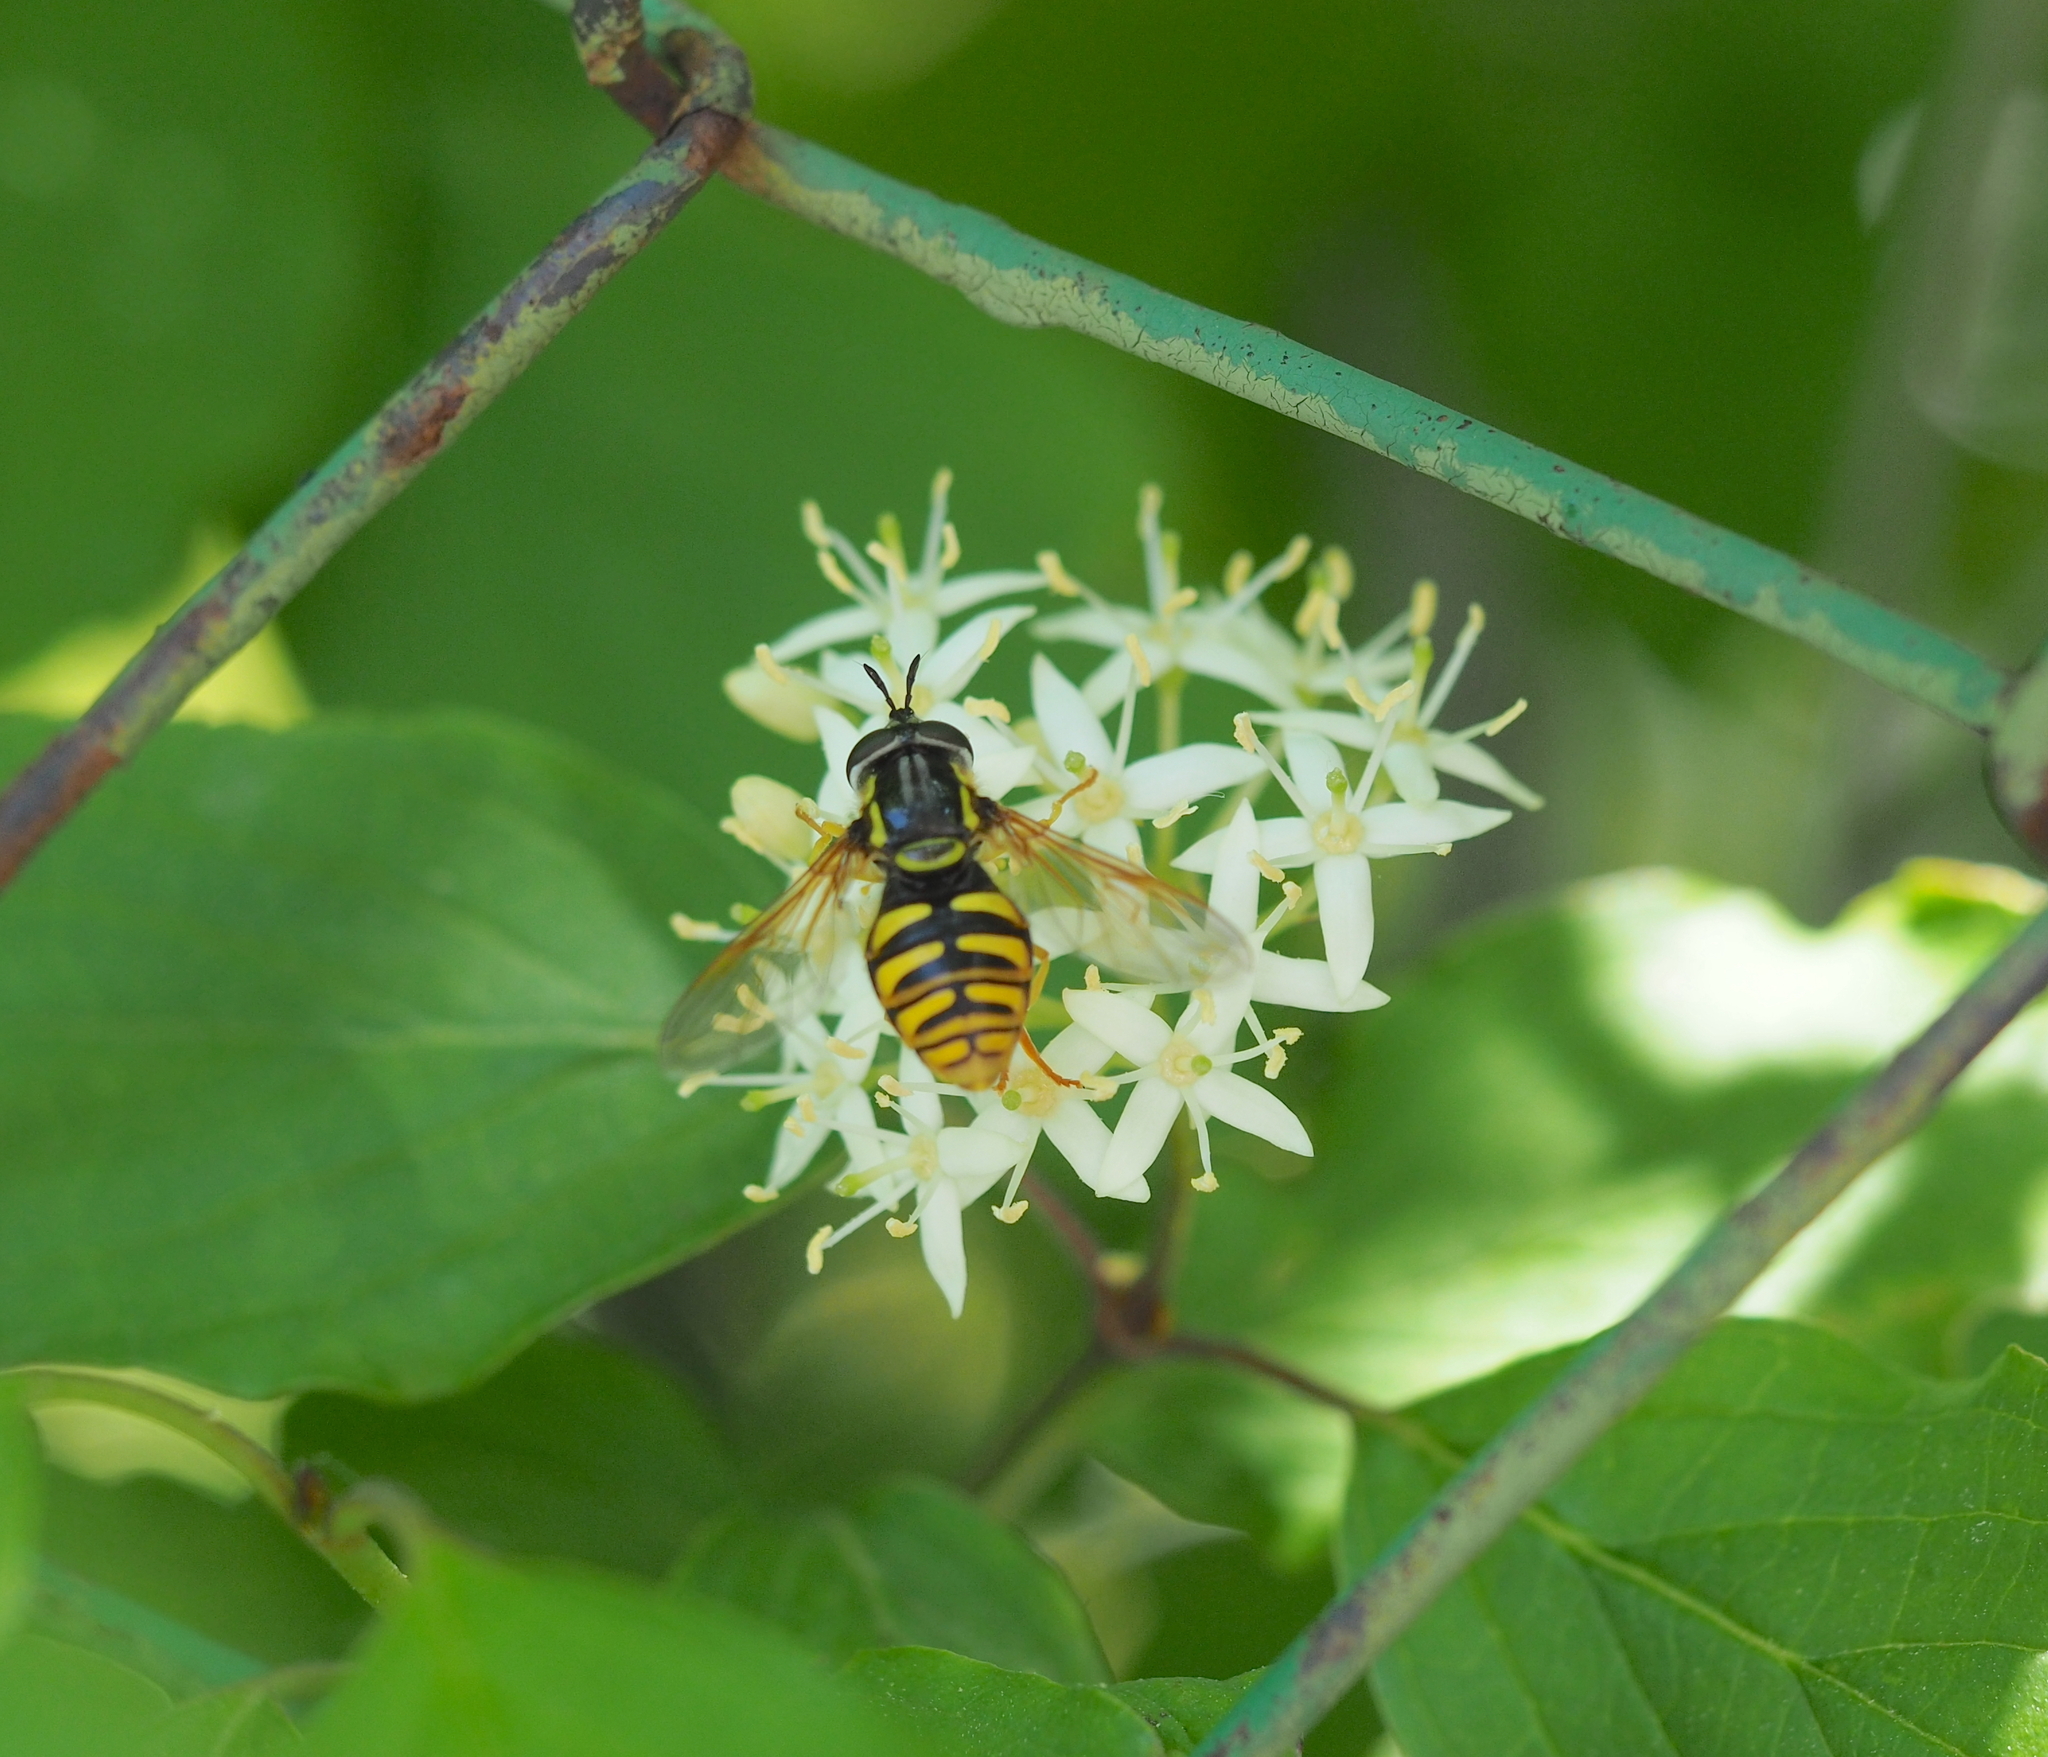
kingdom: Animalia
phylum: Arthropoda
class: Insecta
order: Diptera
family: Syrphidae
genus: Chrysotoxum
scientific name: Chrysotoxum cautum
